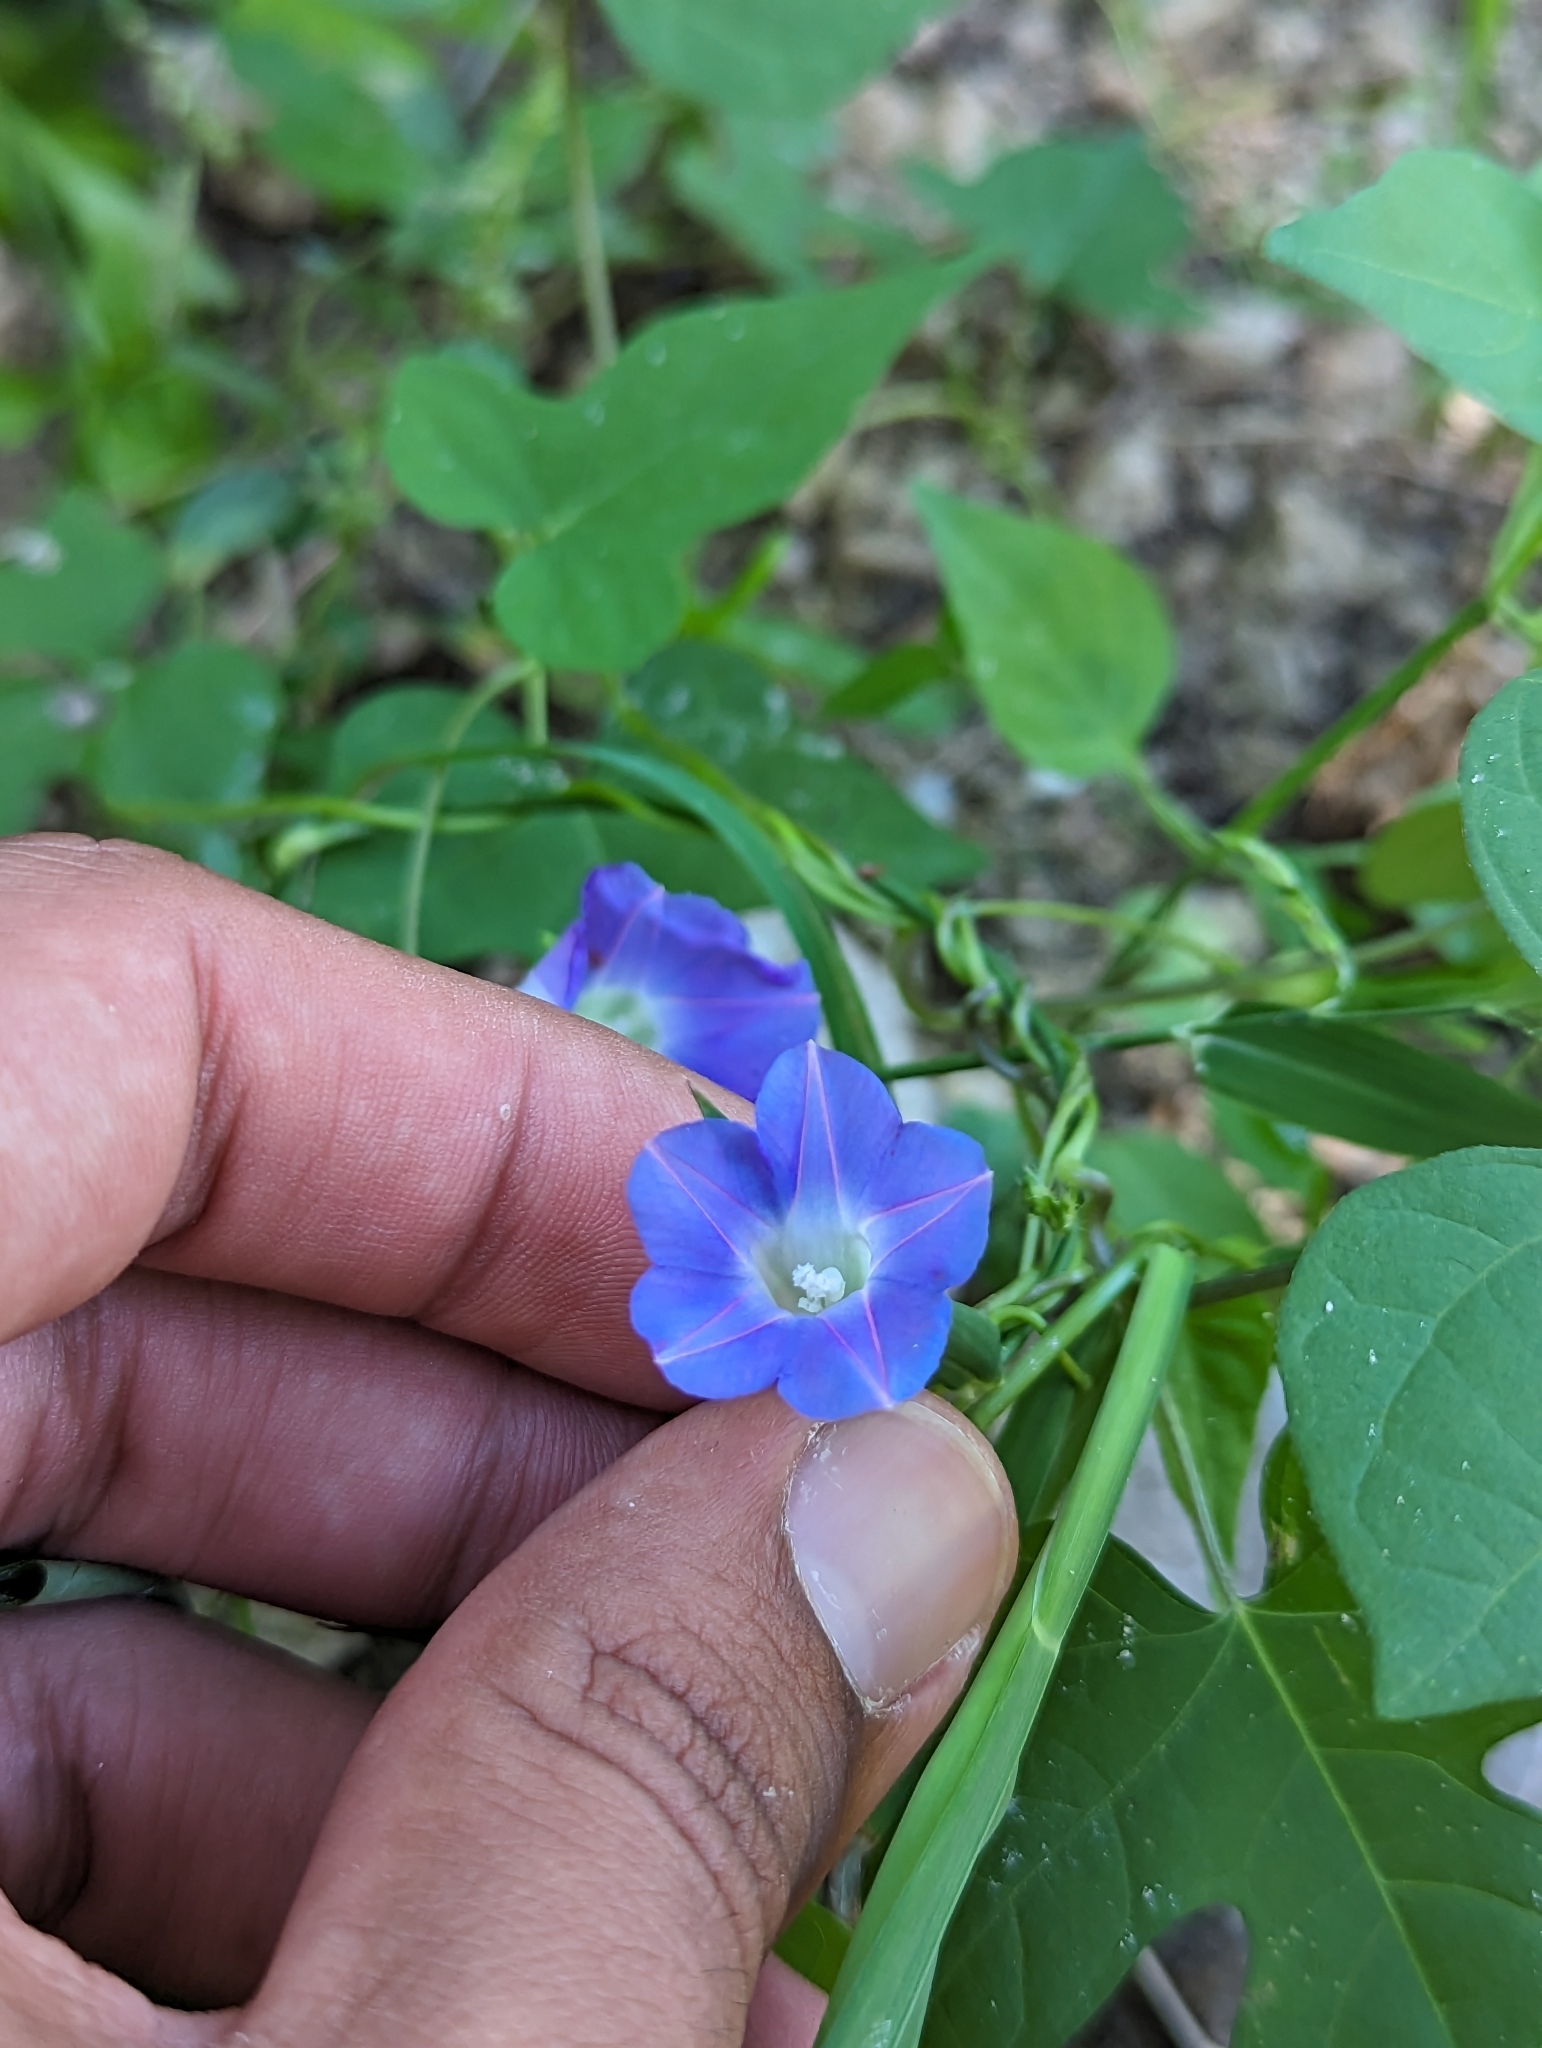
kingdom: Plantae
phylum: Tracheophyta
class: Magnoliopsida
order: Solanales
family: Convolvulaceae
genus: Ipomoea
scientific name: Ipomoea nil
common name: Japanese morning-glory
